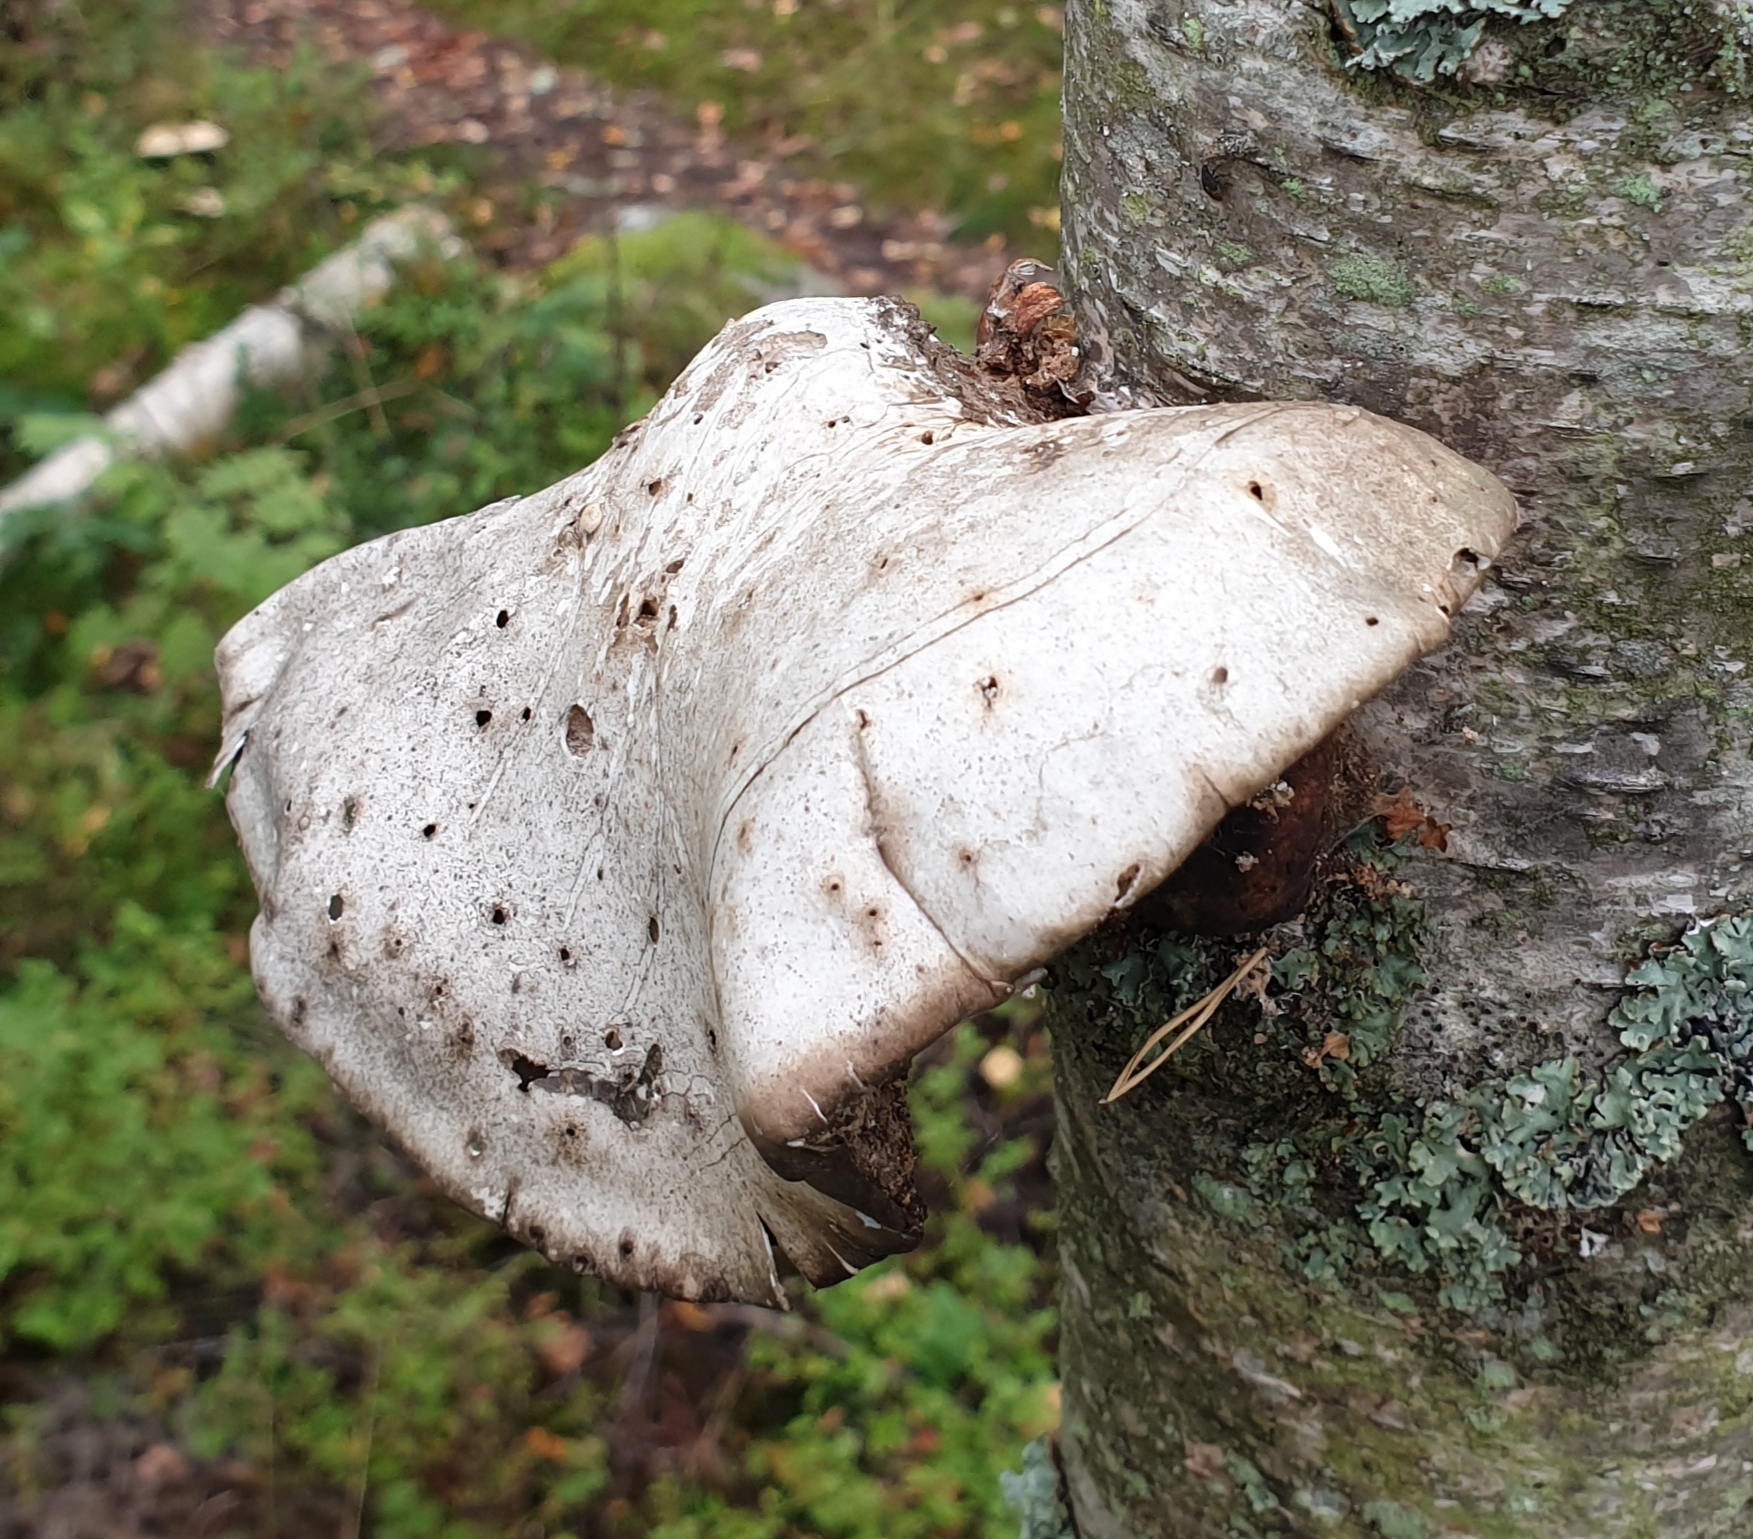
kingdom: Fungi
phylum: Basidiomycota
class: Agaricomycetes
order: Polyporales
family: Fomitopsidaceae
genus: Fomitopsis
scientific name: Fomitopsis betulina
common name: Birch polypore
